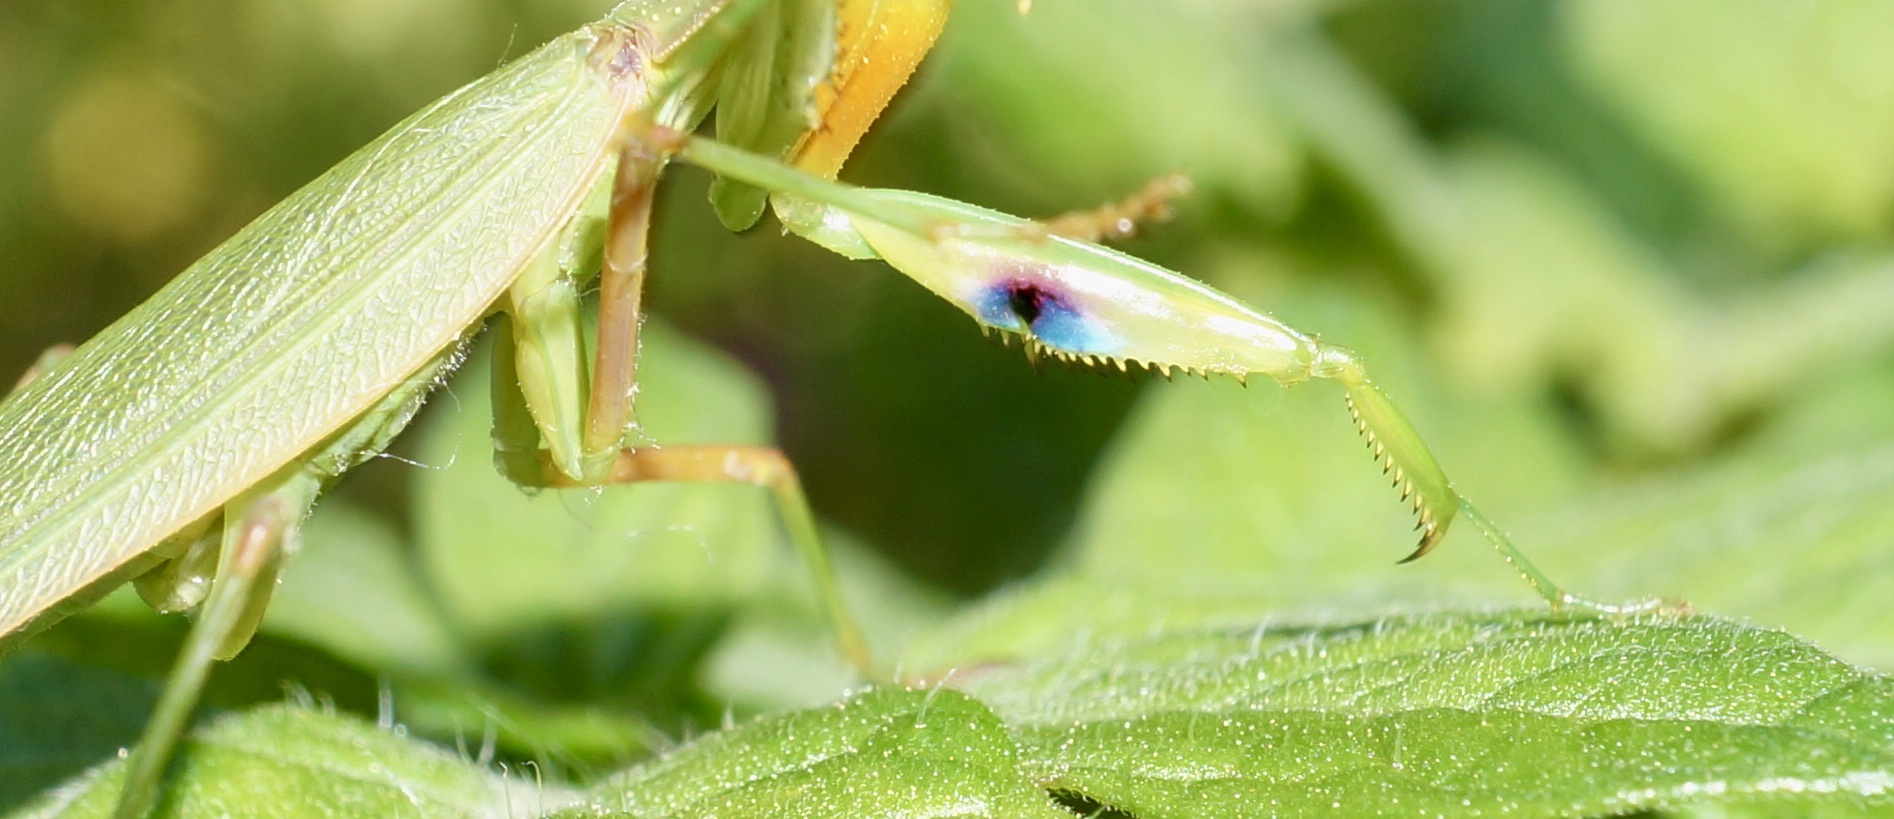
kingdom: Animalia
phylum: Arthropoda
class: Insecta
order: Mantodea
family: Mantidae
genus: Orthodera
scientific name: Orthodera novaezealandiae
